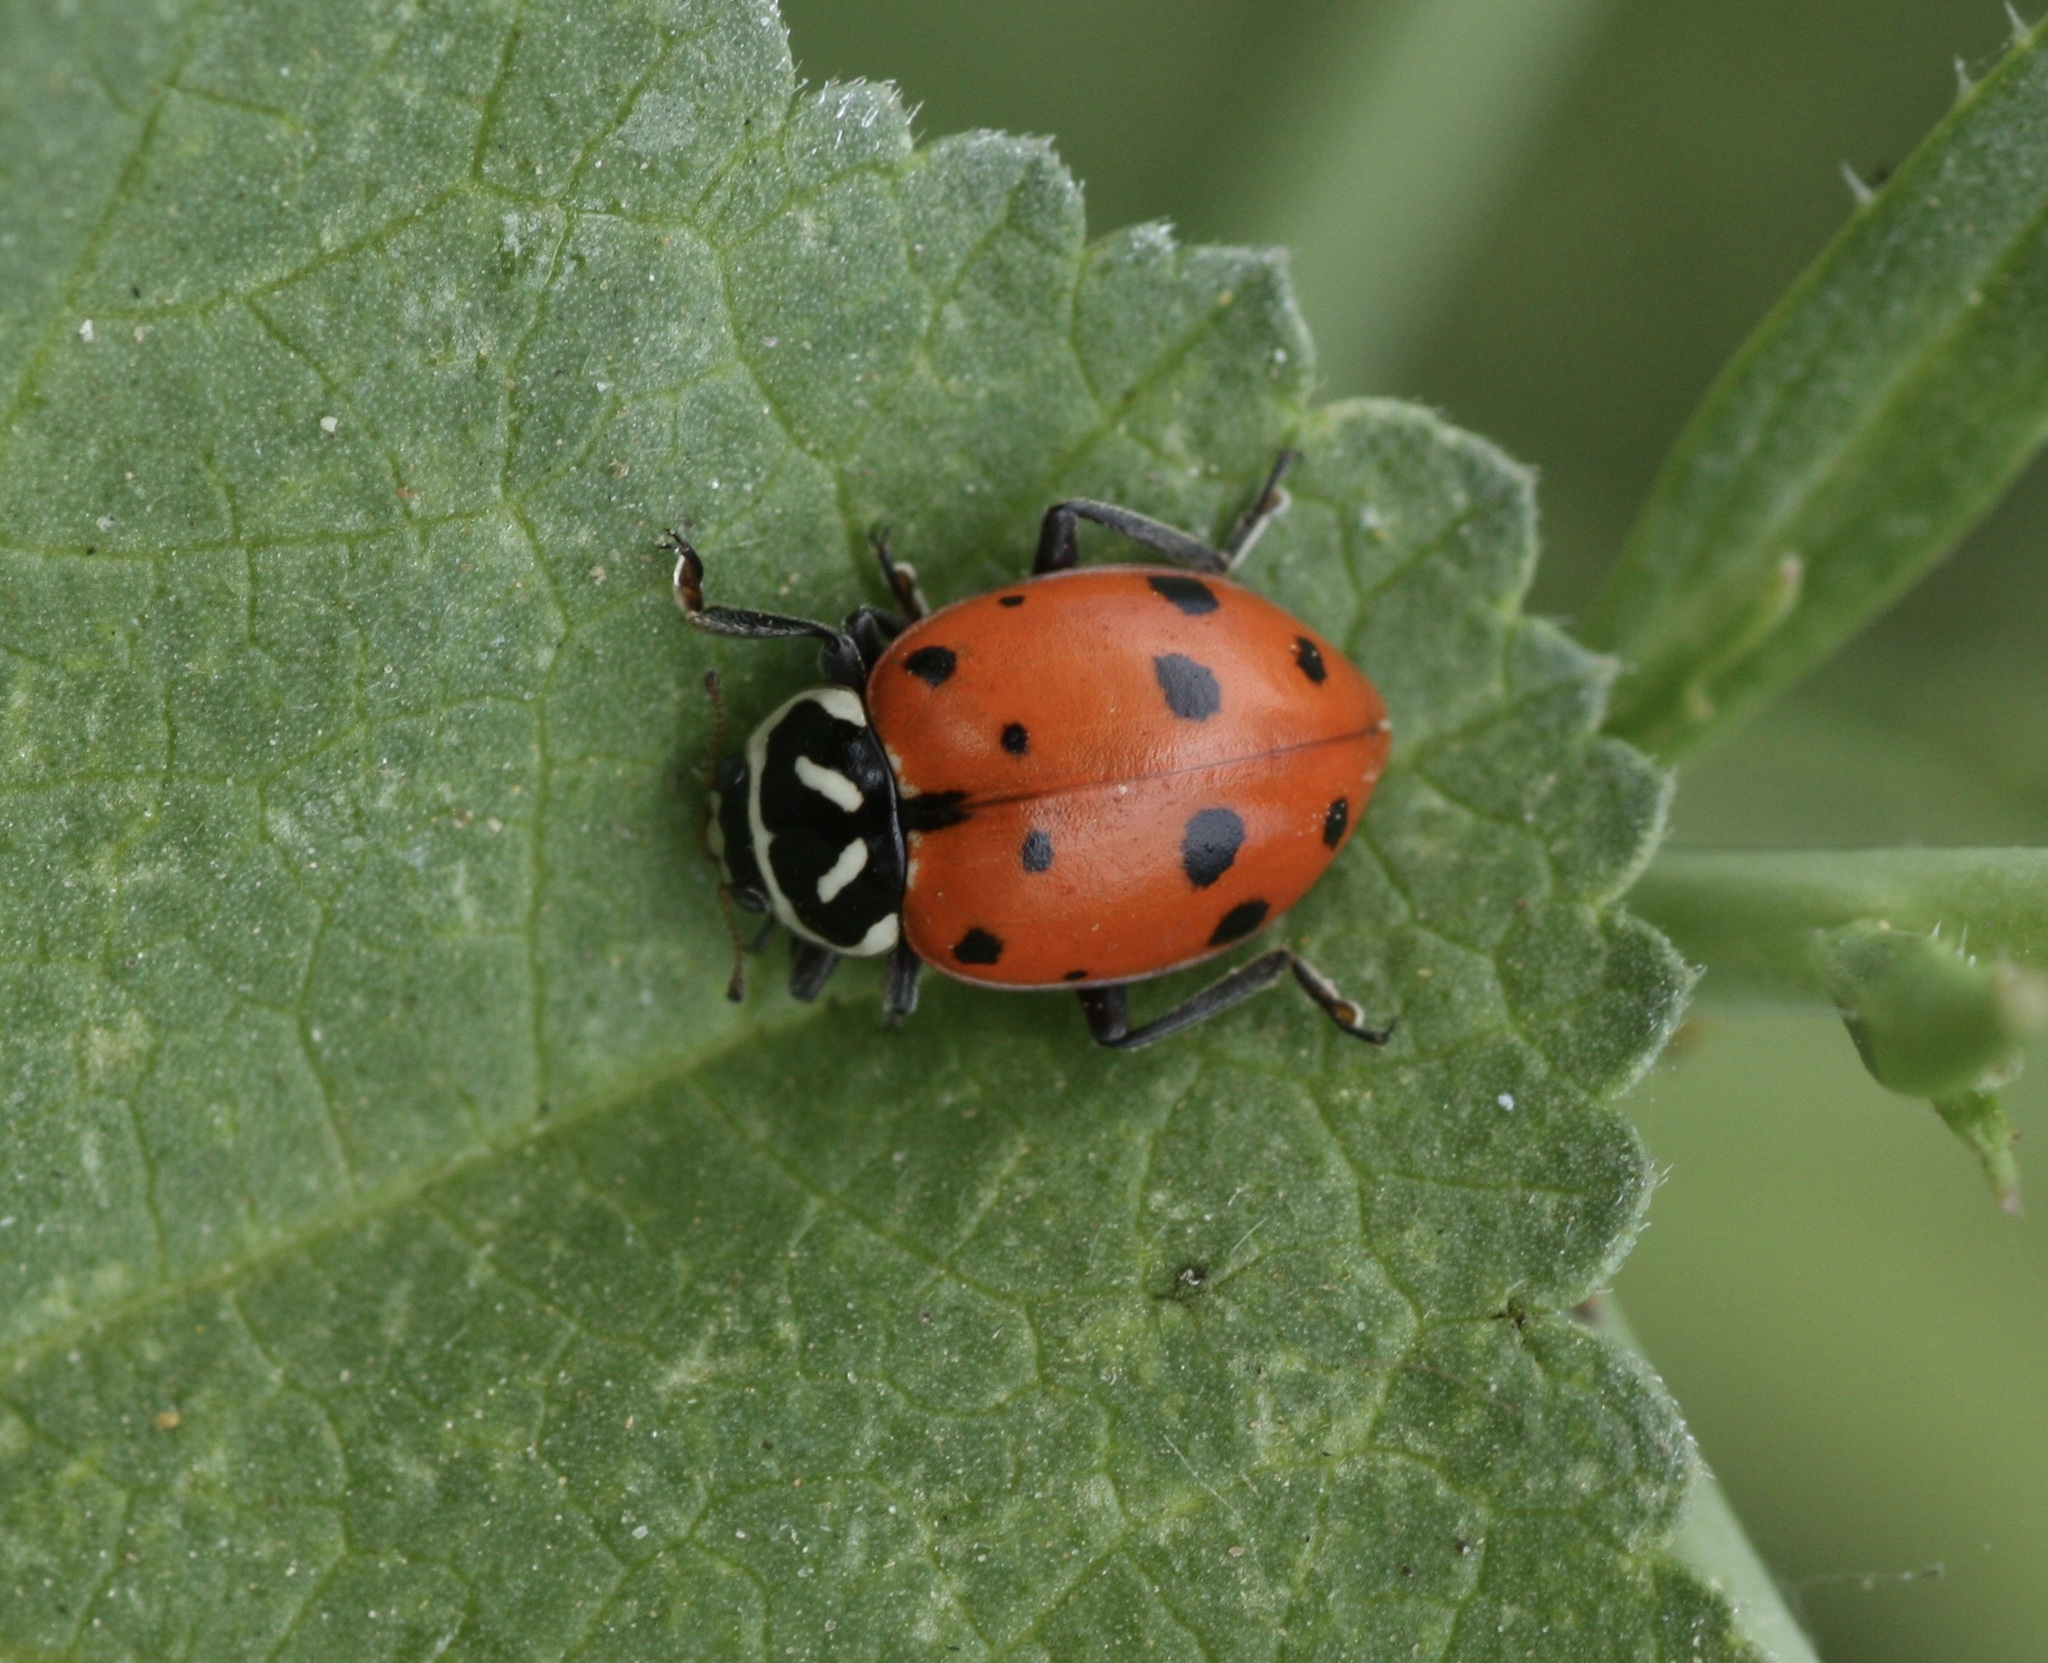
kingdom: Animalia
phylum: Arthropoda
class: Insecta
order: Coleoptera
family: Coccinellidae
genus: Hippodamia
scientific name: Hippodamia convergens
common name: Convergent lady beetle
